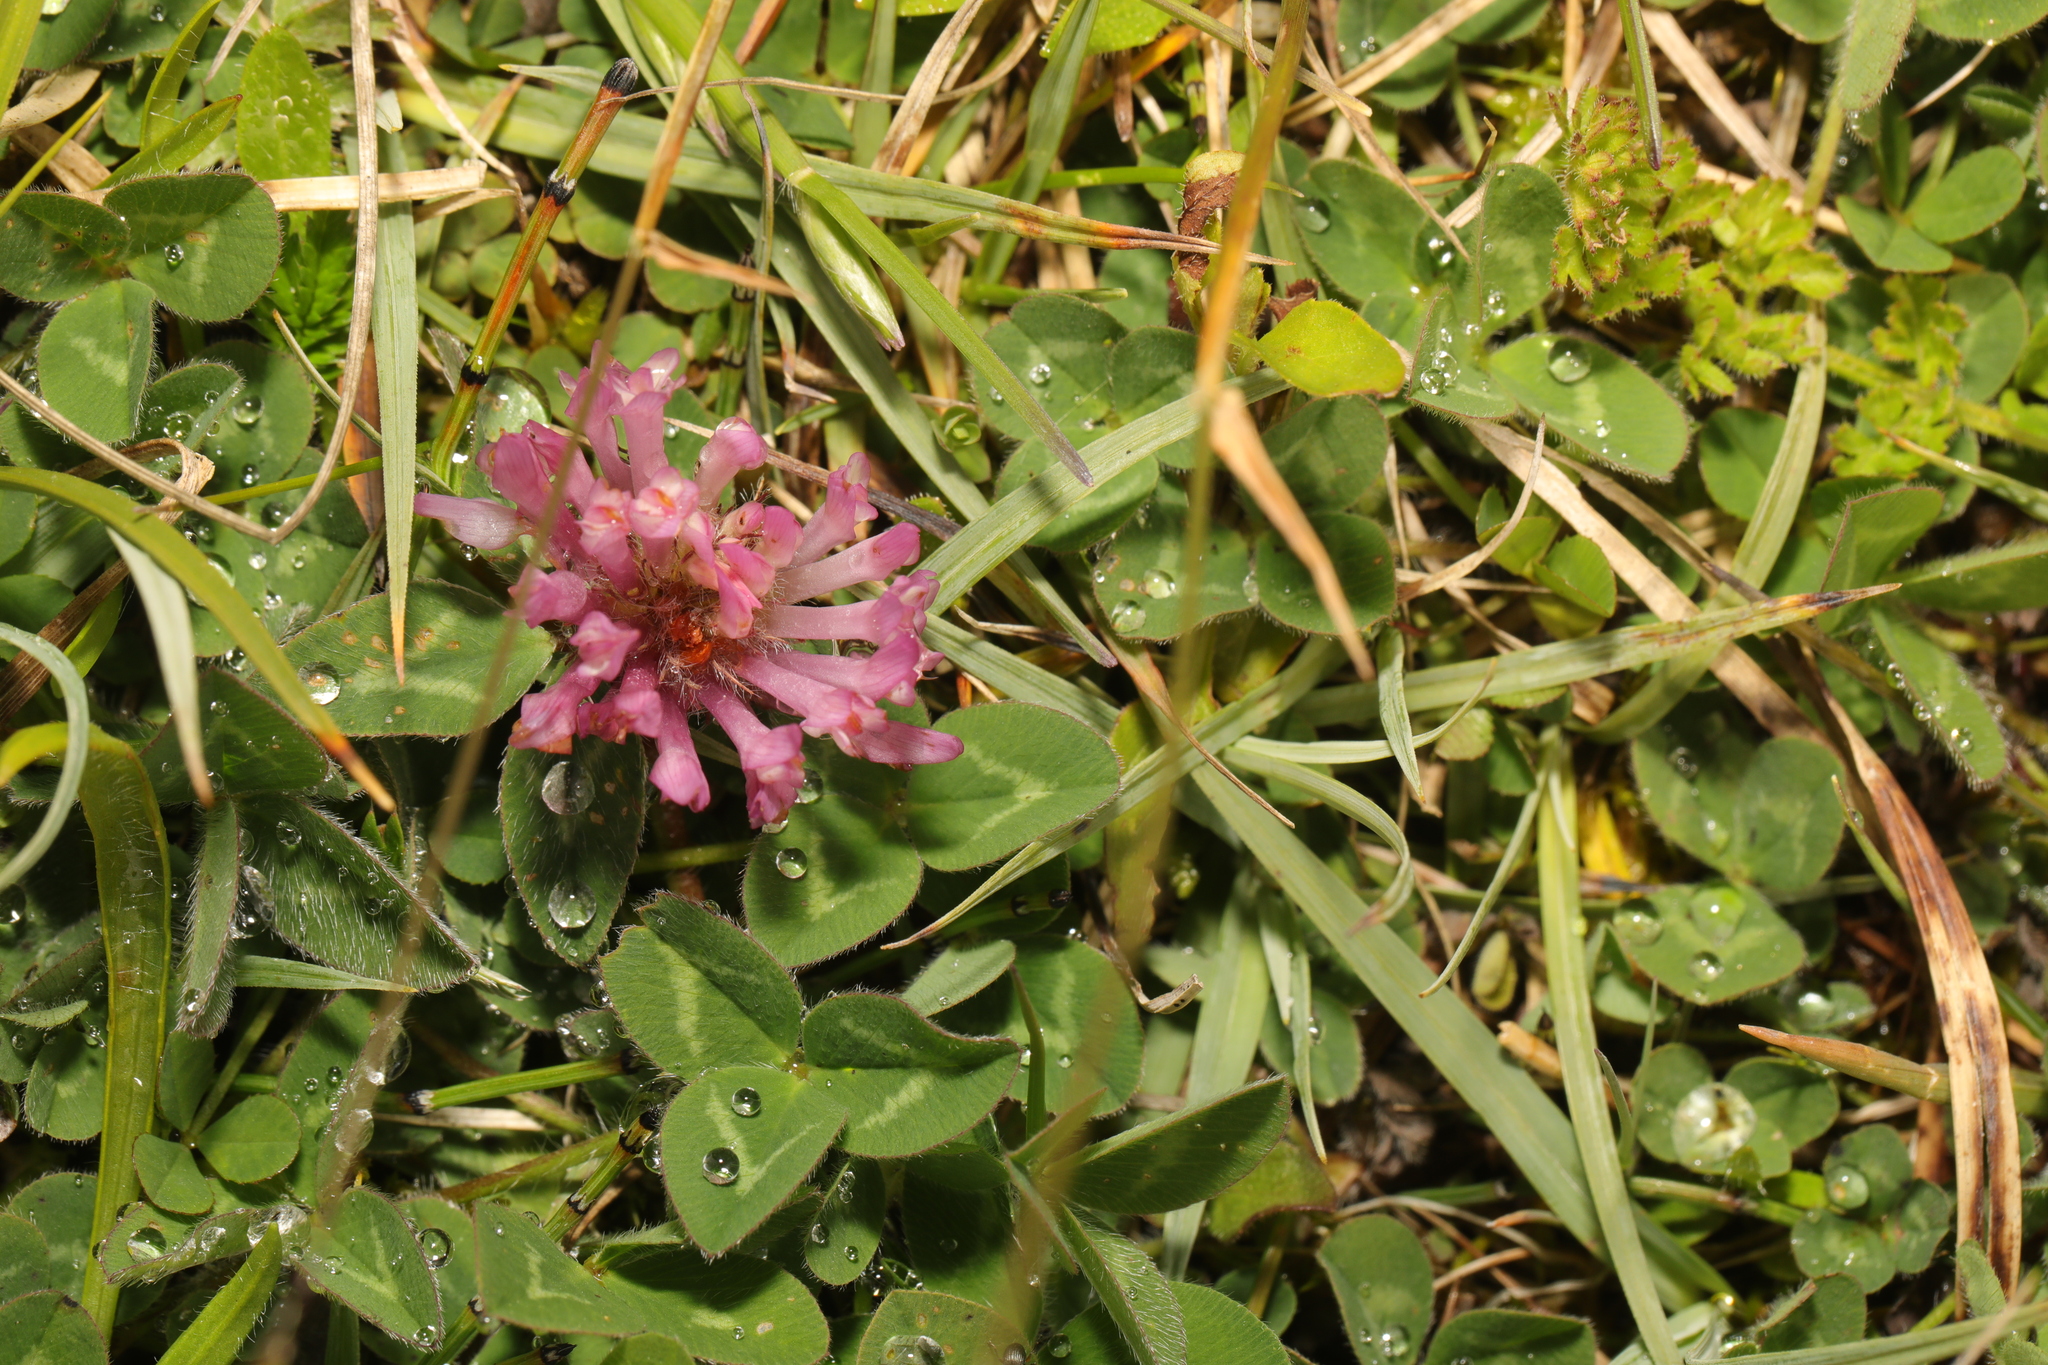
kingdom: Plantae
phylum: Tracheophyta
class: Magnoliopsida
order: Fabales
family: Fabaceae
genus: Trifolium
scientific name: Trifolium pratense
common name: Red clover
